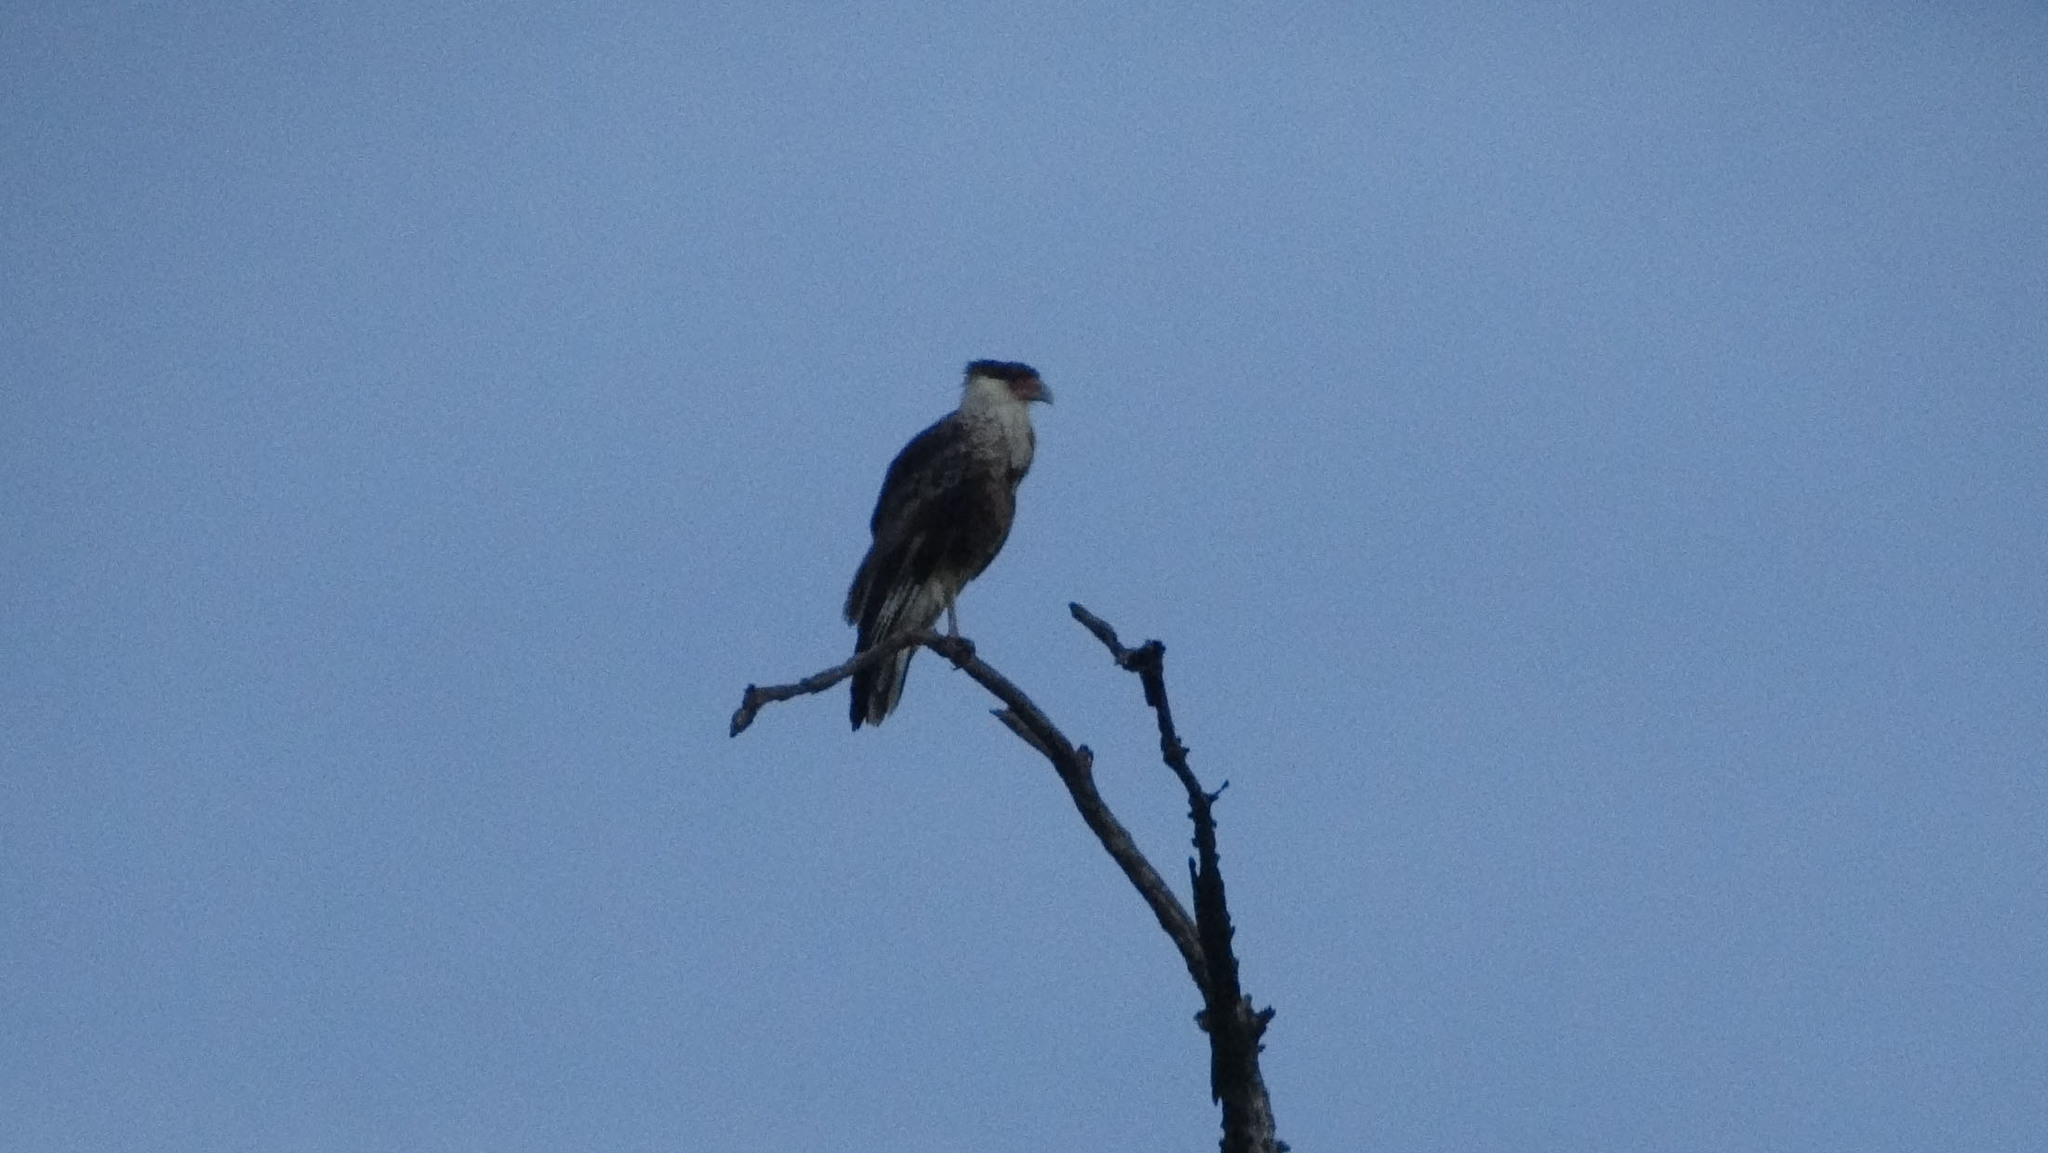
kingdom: Animalia
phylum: Chordata
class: Aves
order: Falconiformes
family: Falconidae
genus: Caracara
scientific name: Caracara plancus
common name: Southern caracara
